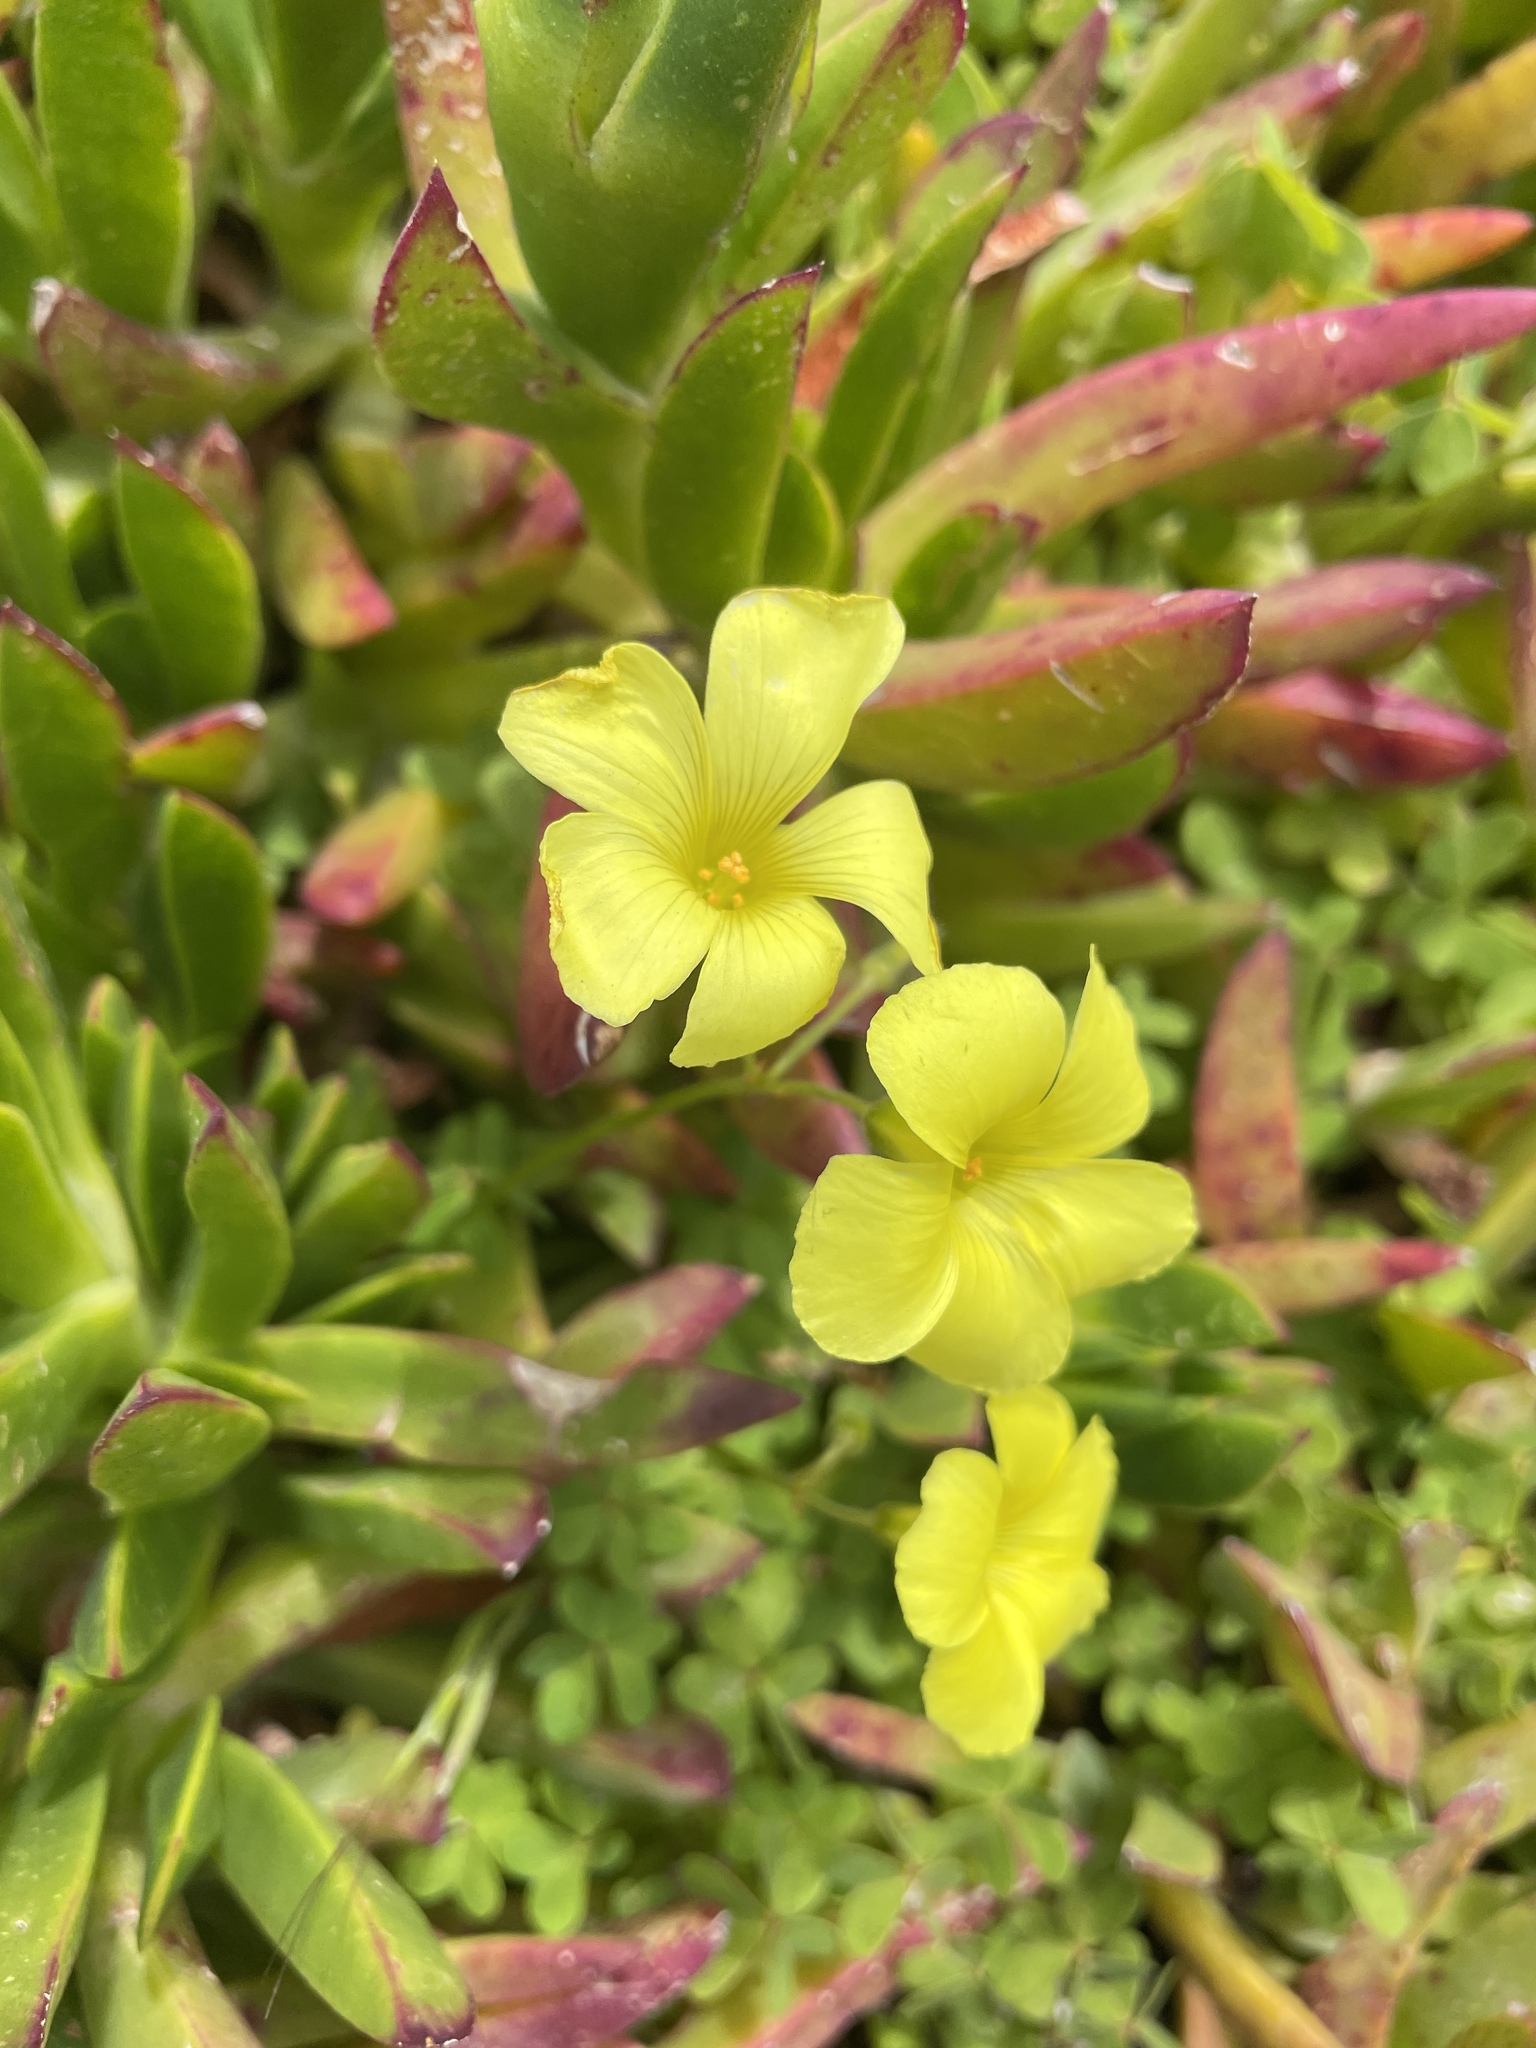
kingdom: Plantae
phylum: Tracheophyta
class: Magnoliopsida
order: Oxalidales
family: Oxalidaceae
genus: Oxalis
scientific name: Oxalis pes-caprae
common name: Bermuda-buttercup
